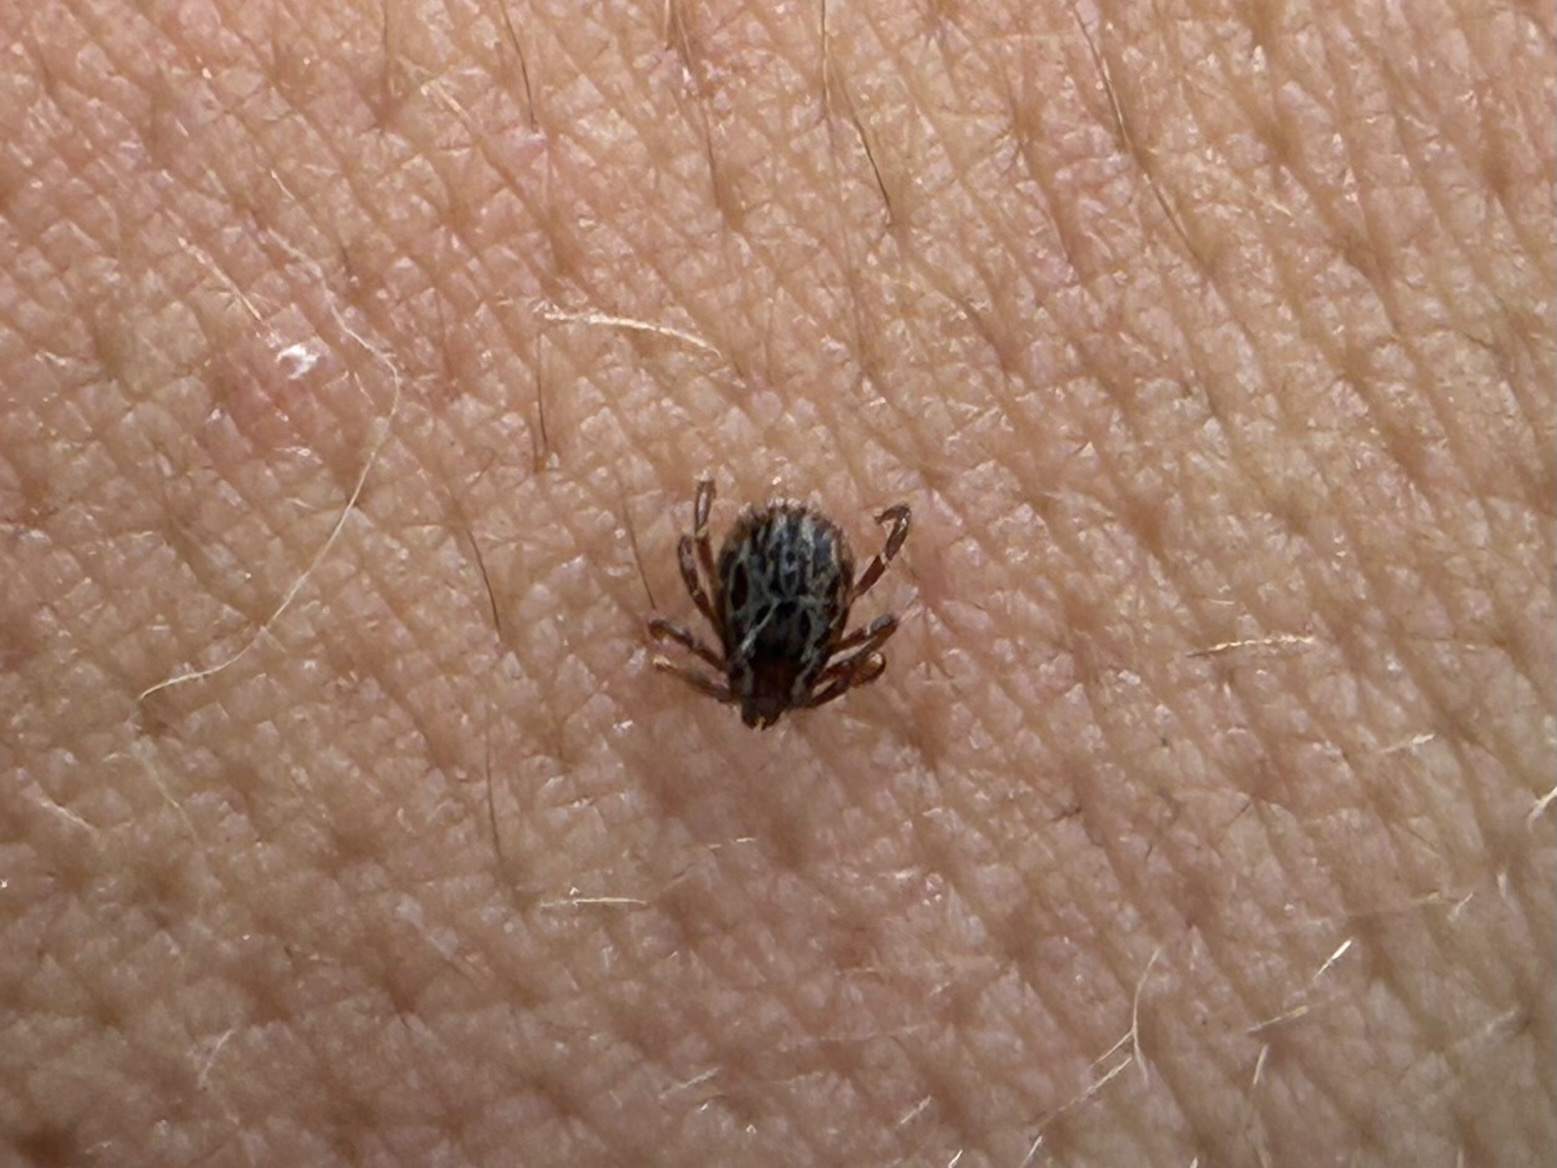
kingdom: Animalia
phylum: Arthropoda
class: Arachnida
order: Ixodida
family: Ixodidae
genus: Dermacentor
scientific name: Dermacentor variabilis
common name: American dog tick
